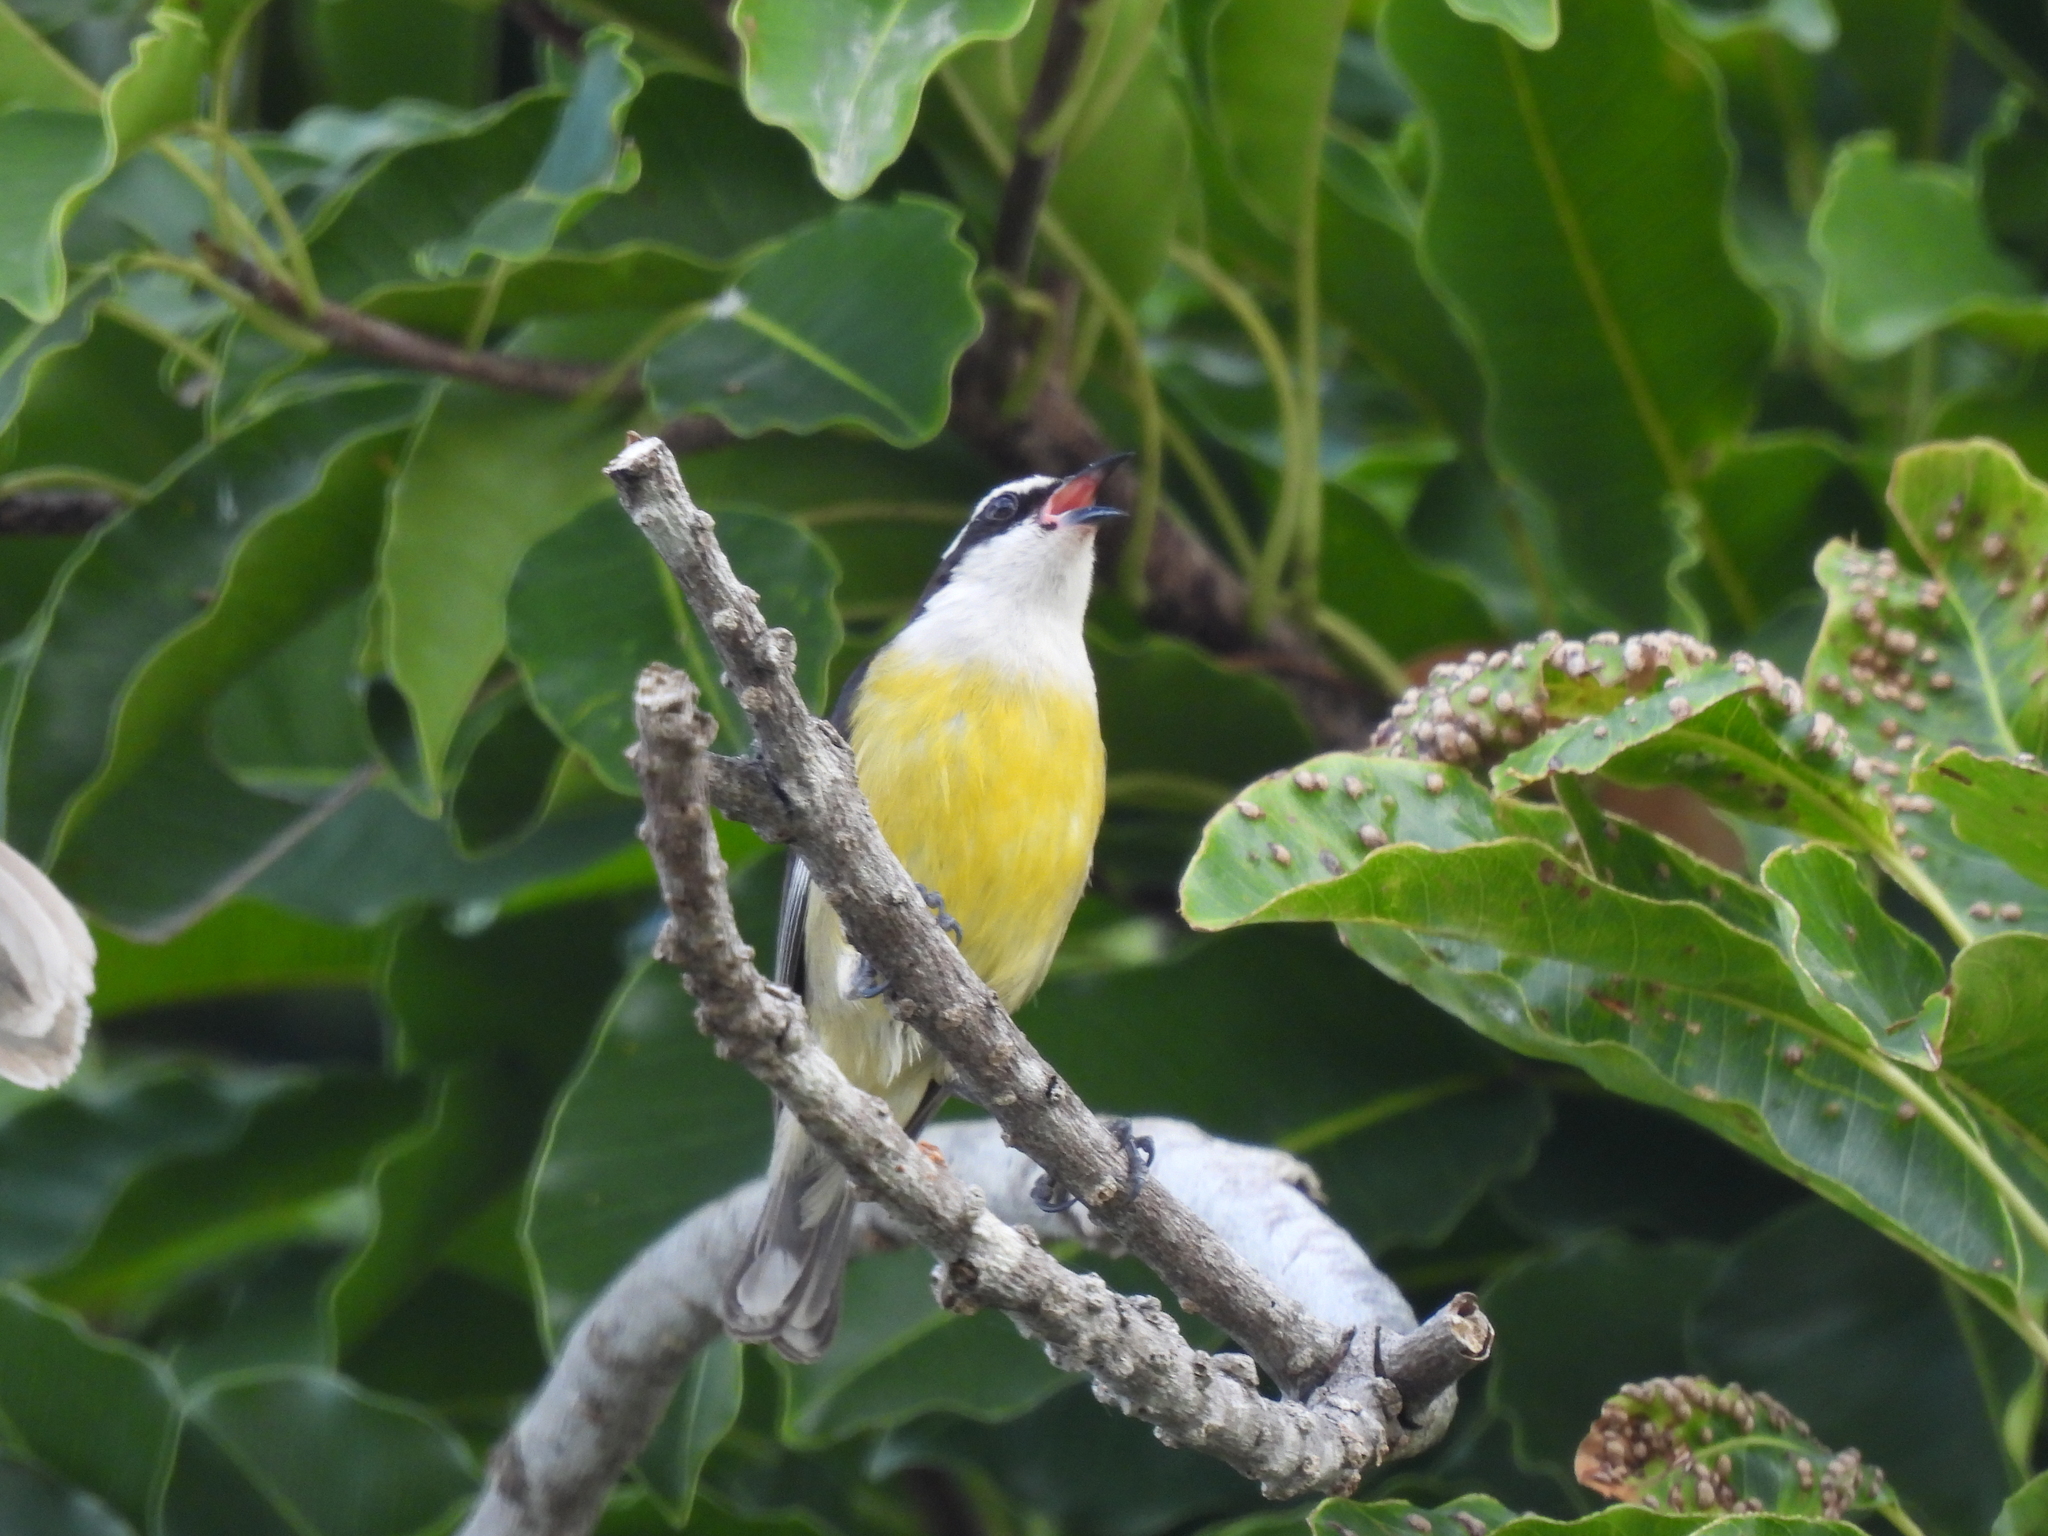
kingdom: Animalia
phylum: Chordata
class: Aves
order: Passeriformes
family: Thraupidae
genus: Coereba
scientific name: Coereba flaveola
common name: Bananaquit
